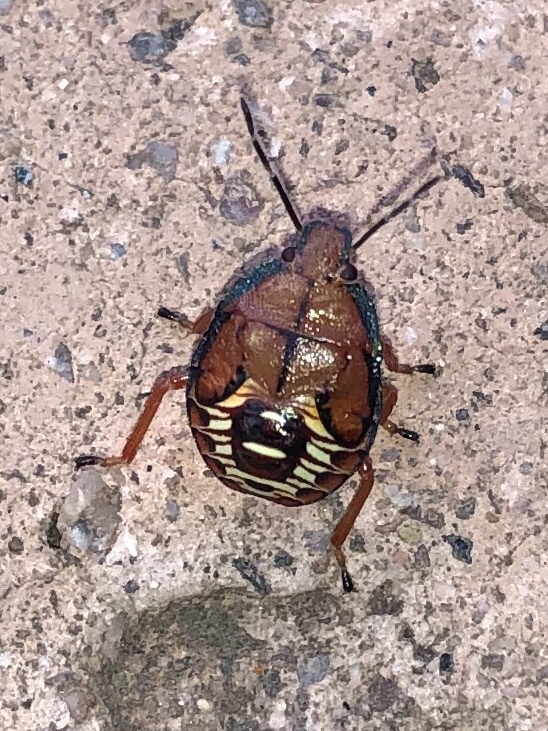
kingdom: Animalia
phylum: Arthropoda
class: Insecta
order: Hemiptera
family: Pentatomidae
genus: Podisus
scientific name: Podisus maculiventris
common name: Spined soldier bug
